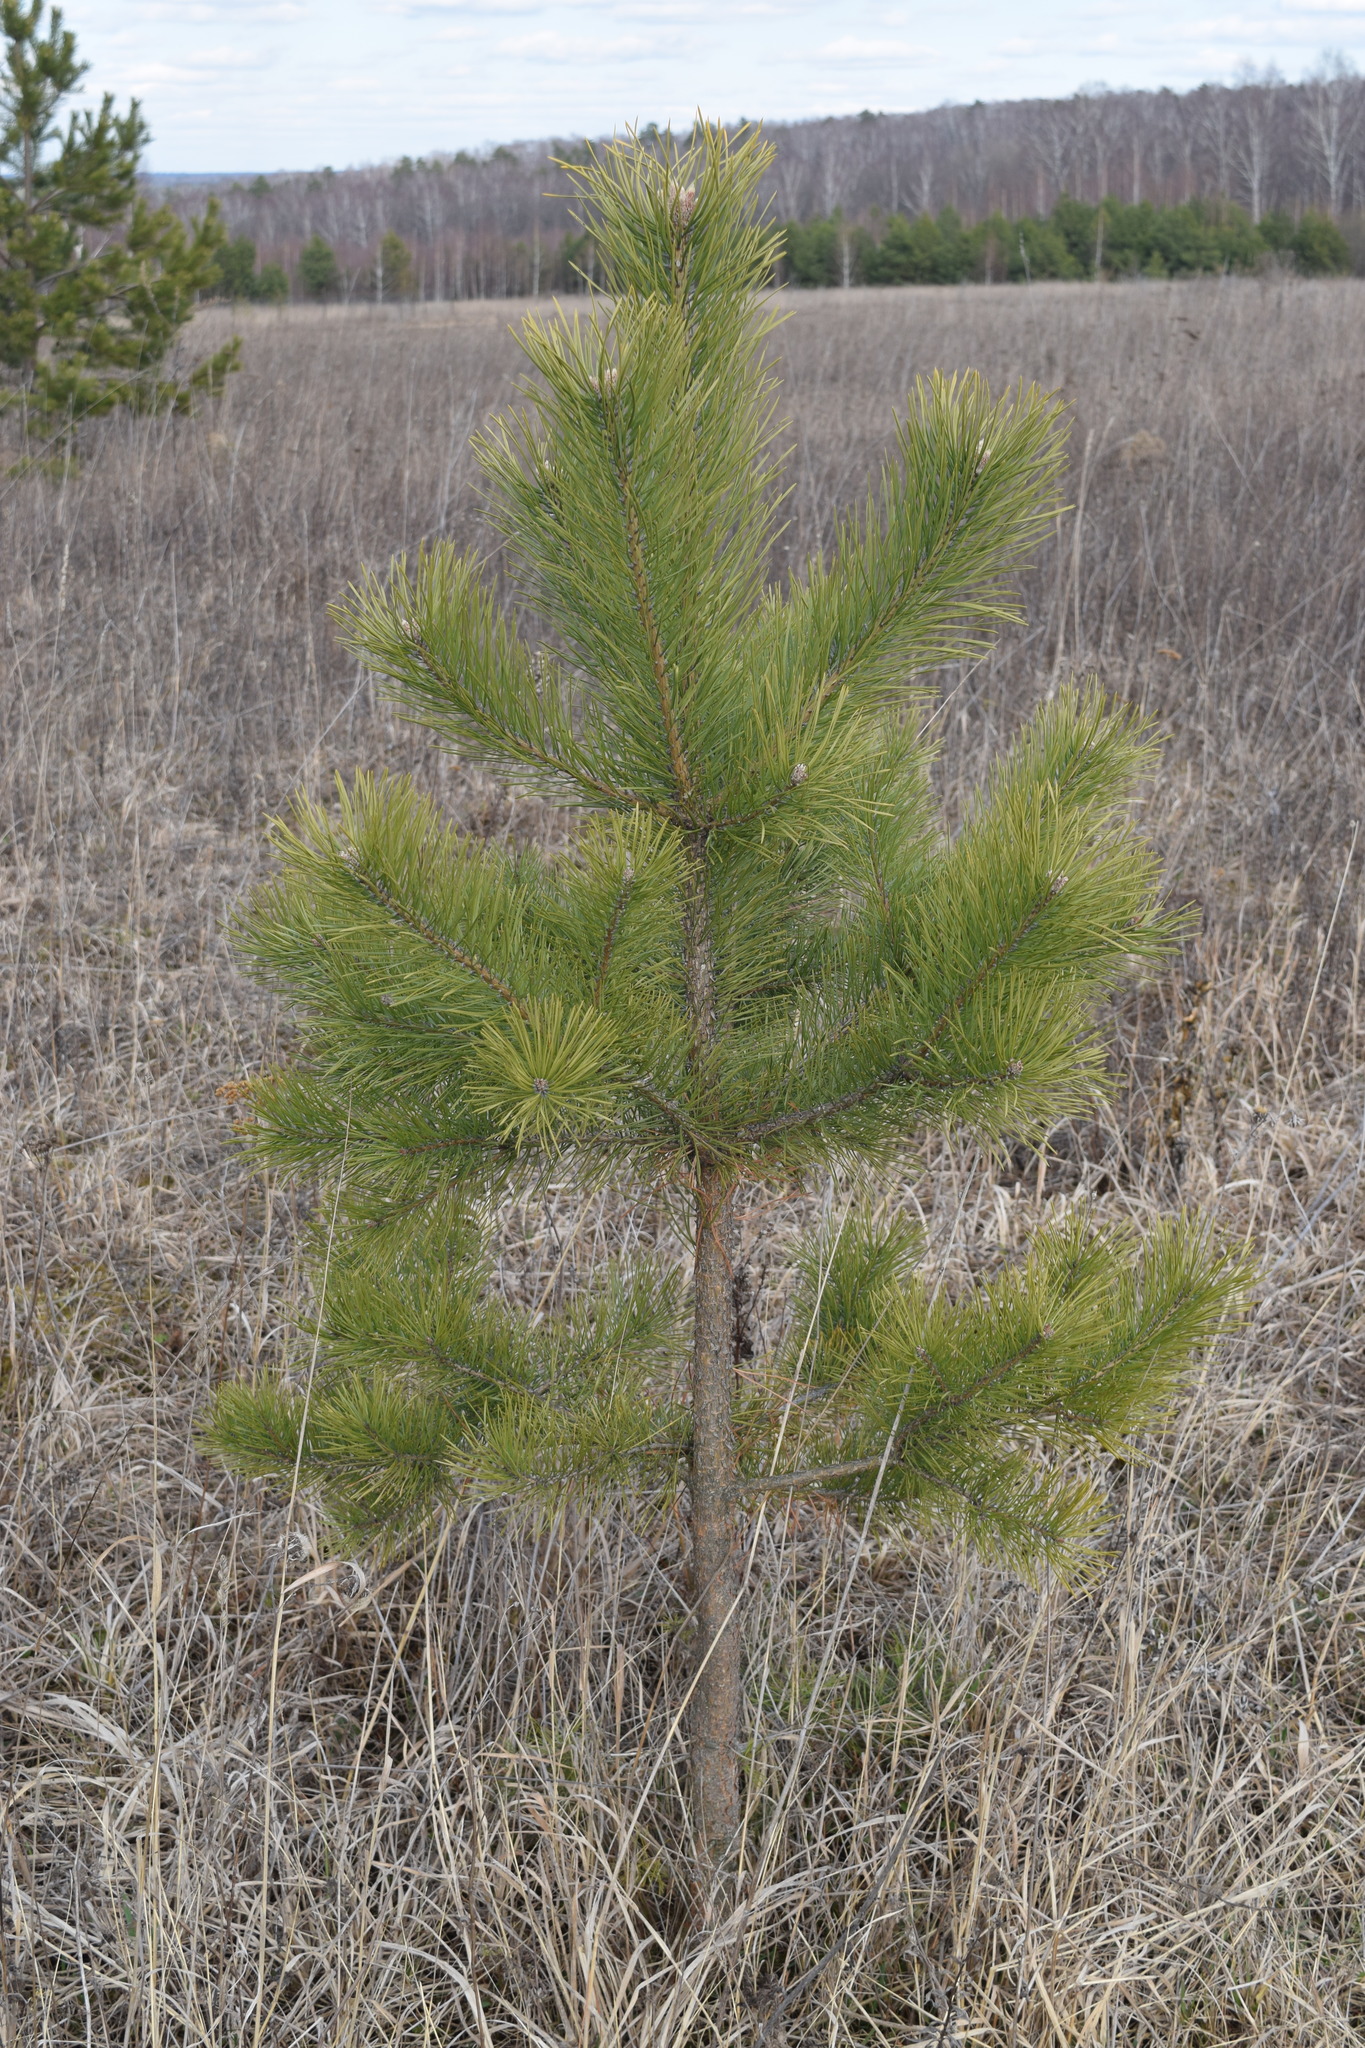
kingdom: Plantae
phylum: Tracheophyta
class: Pinopsida
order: Pinales
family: Pinaceae
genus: Pinus
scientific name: Pinus sylvestris
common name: Scots pine
